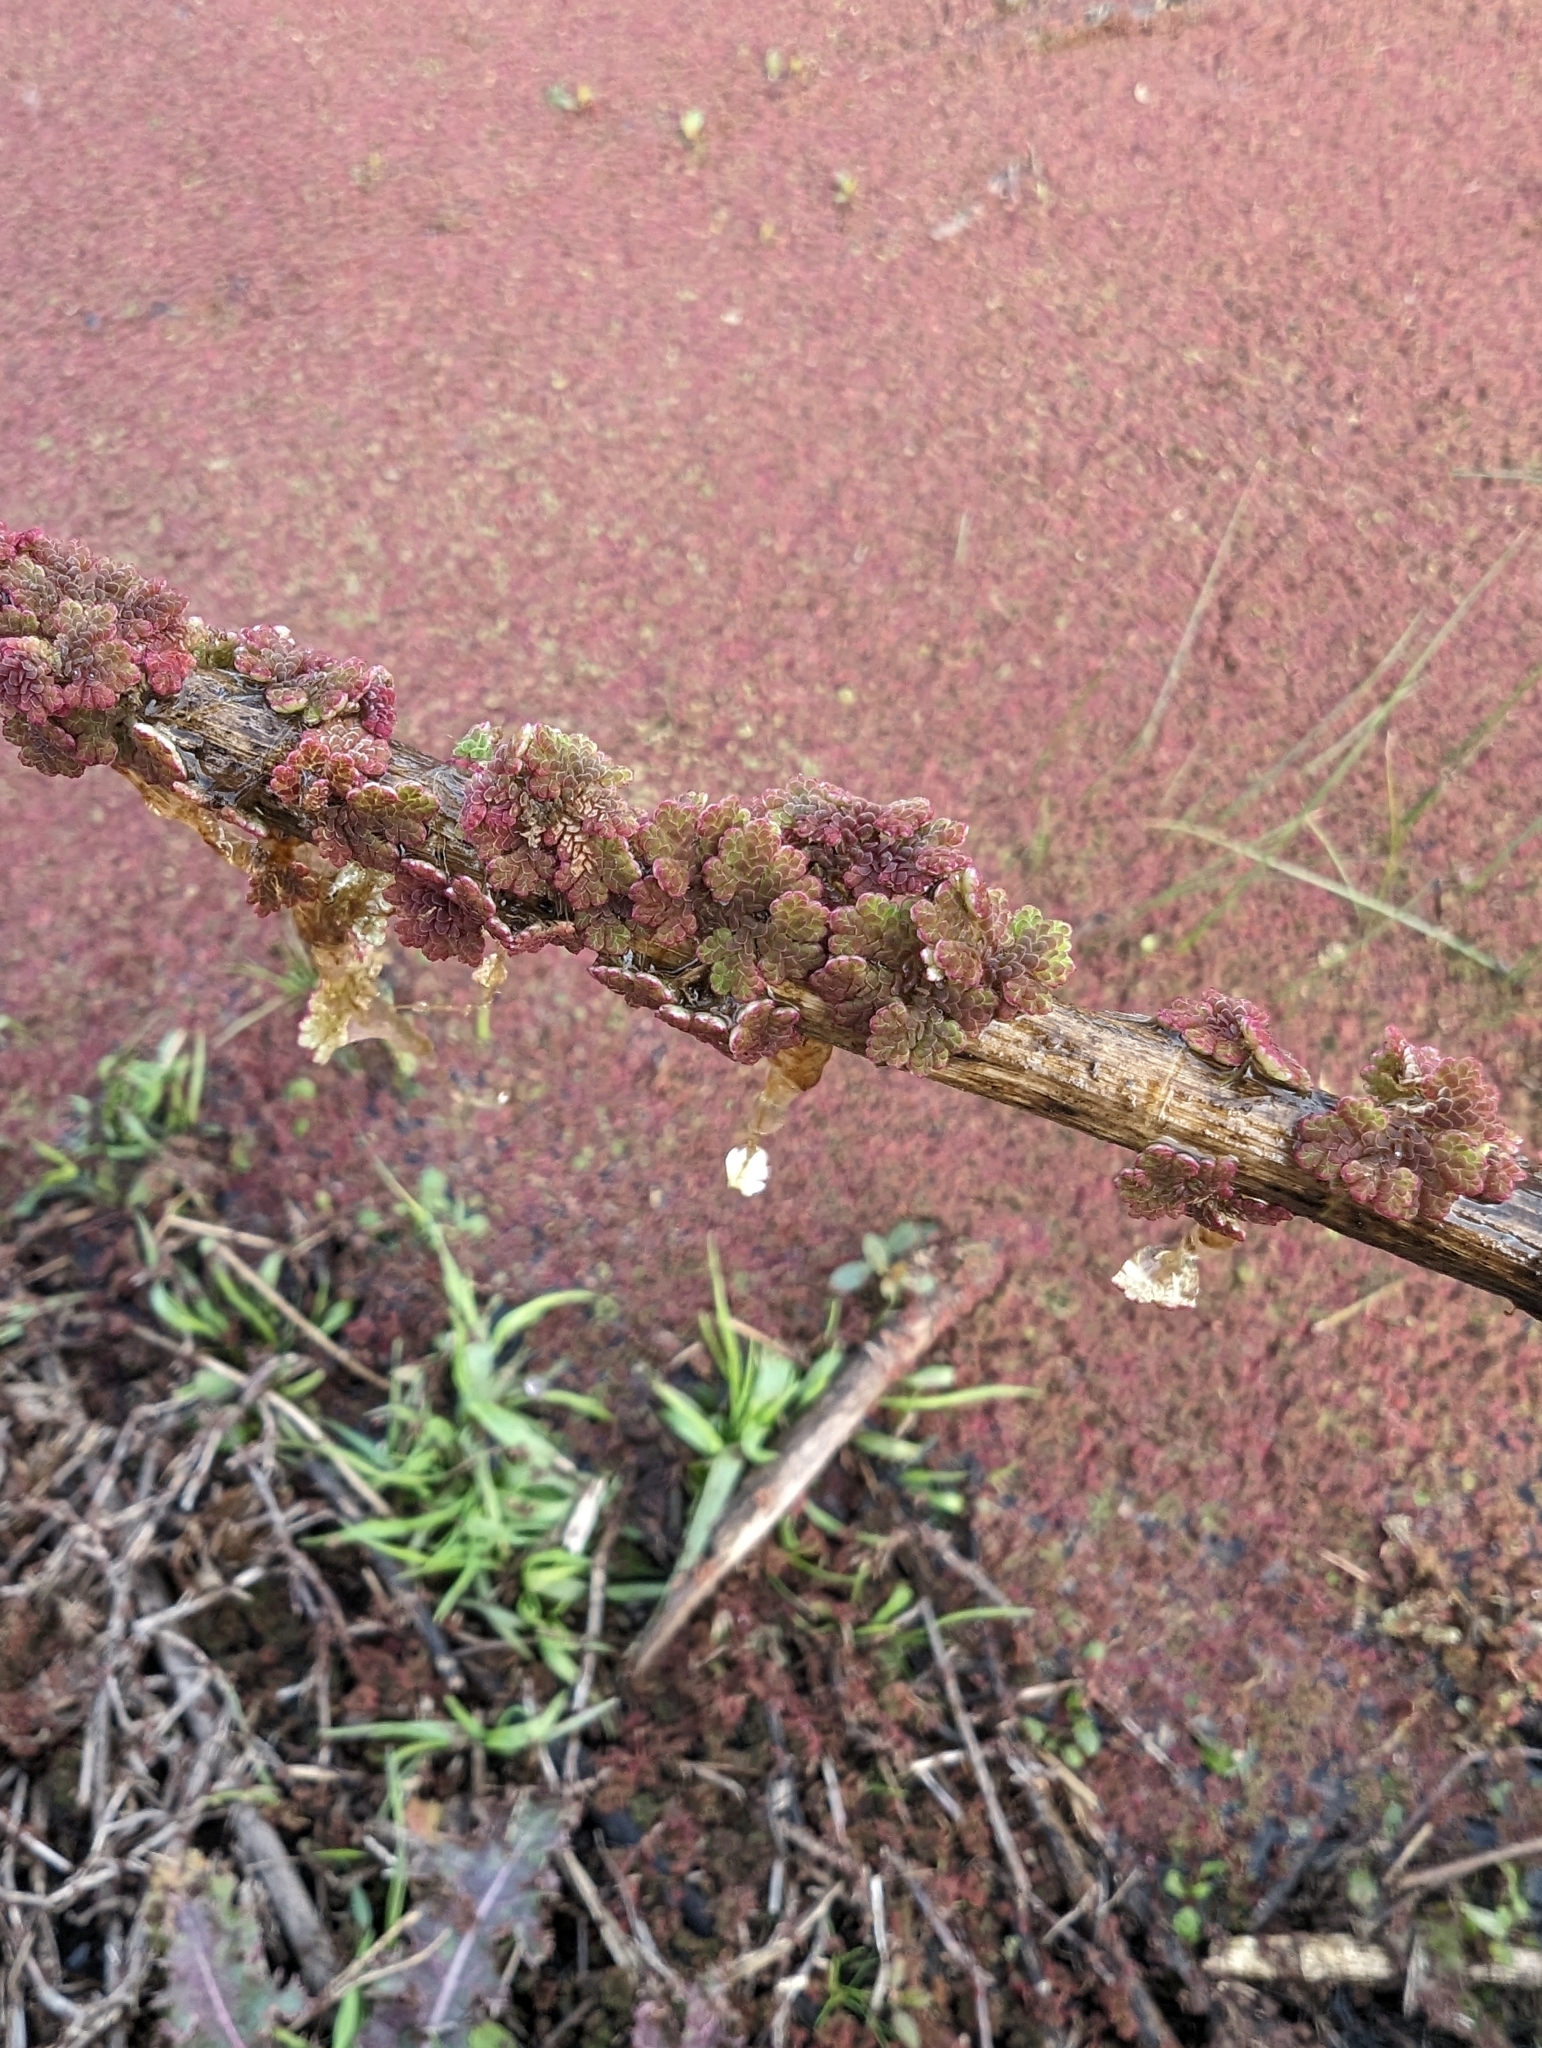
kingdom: Plantae
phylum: Tracheophyta
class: Polypodiopsida
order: Salviniales
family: Salviniaceae
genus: Azolla
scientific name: Azolla caroliniana
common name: Carolina mosquitofern
